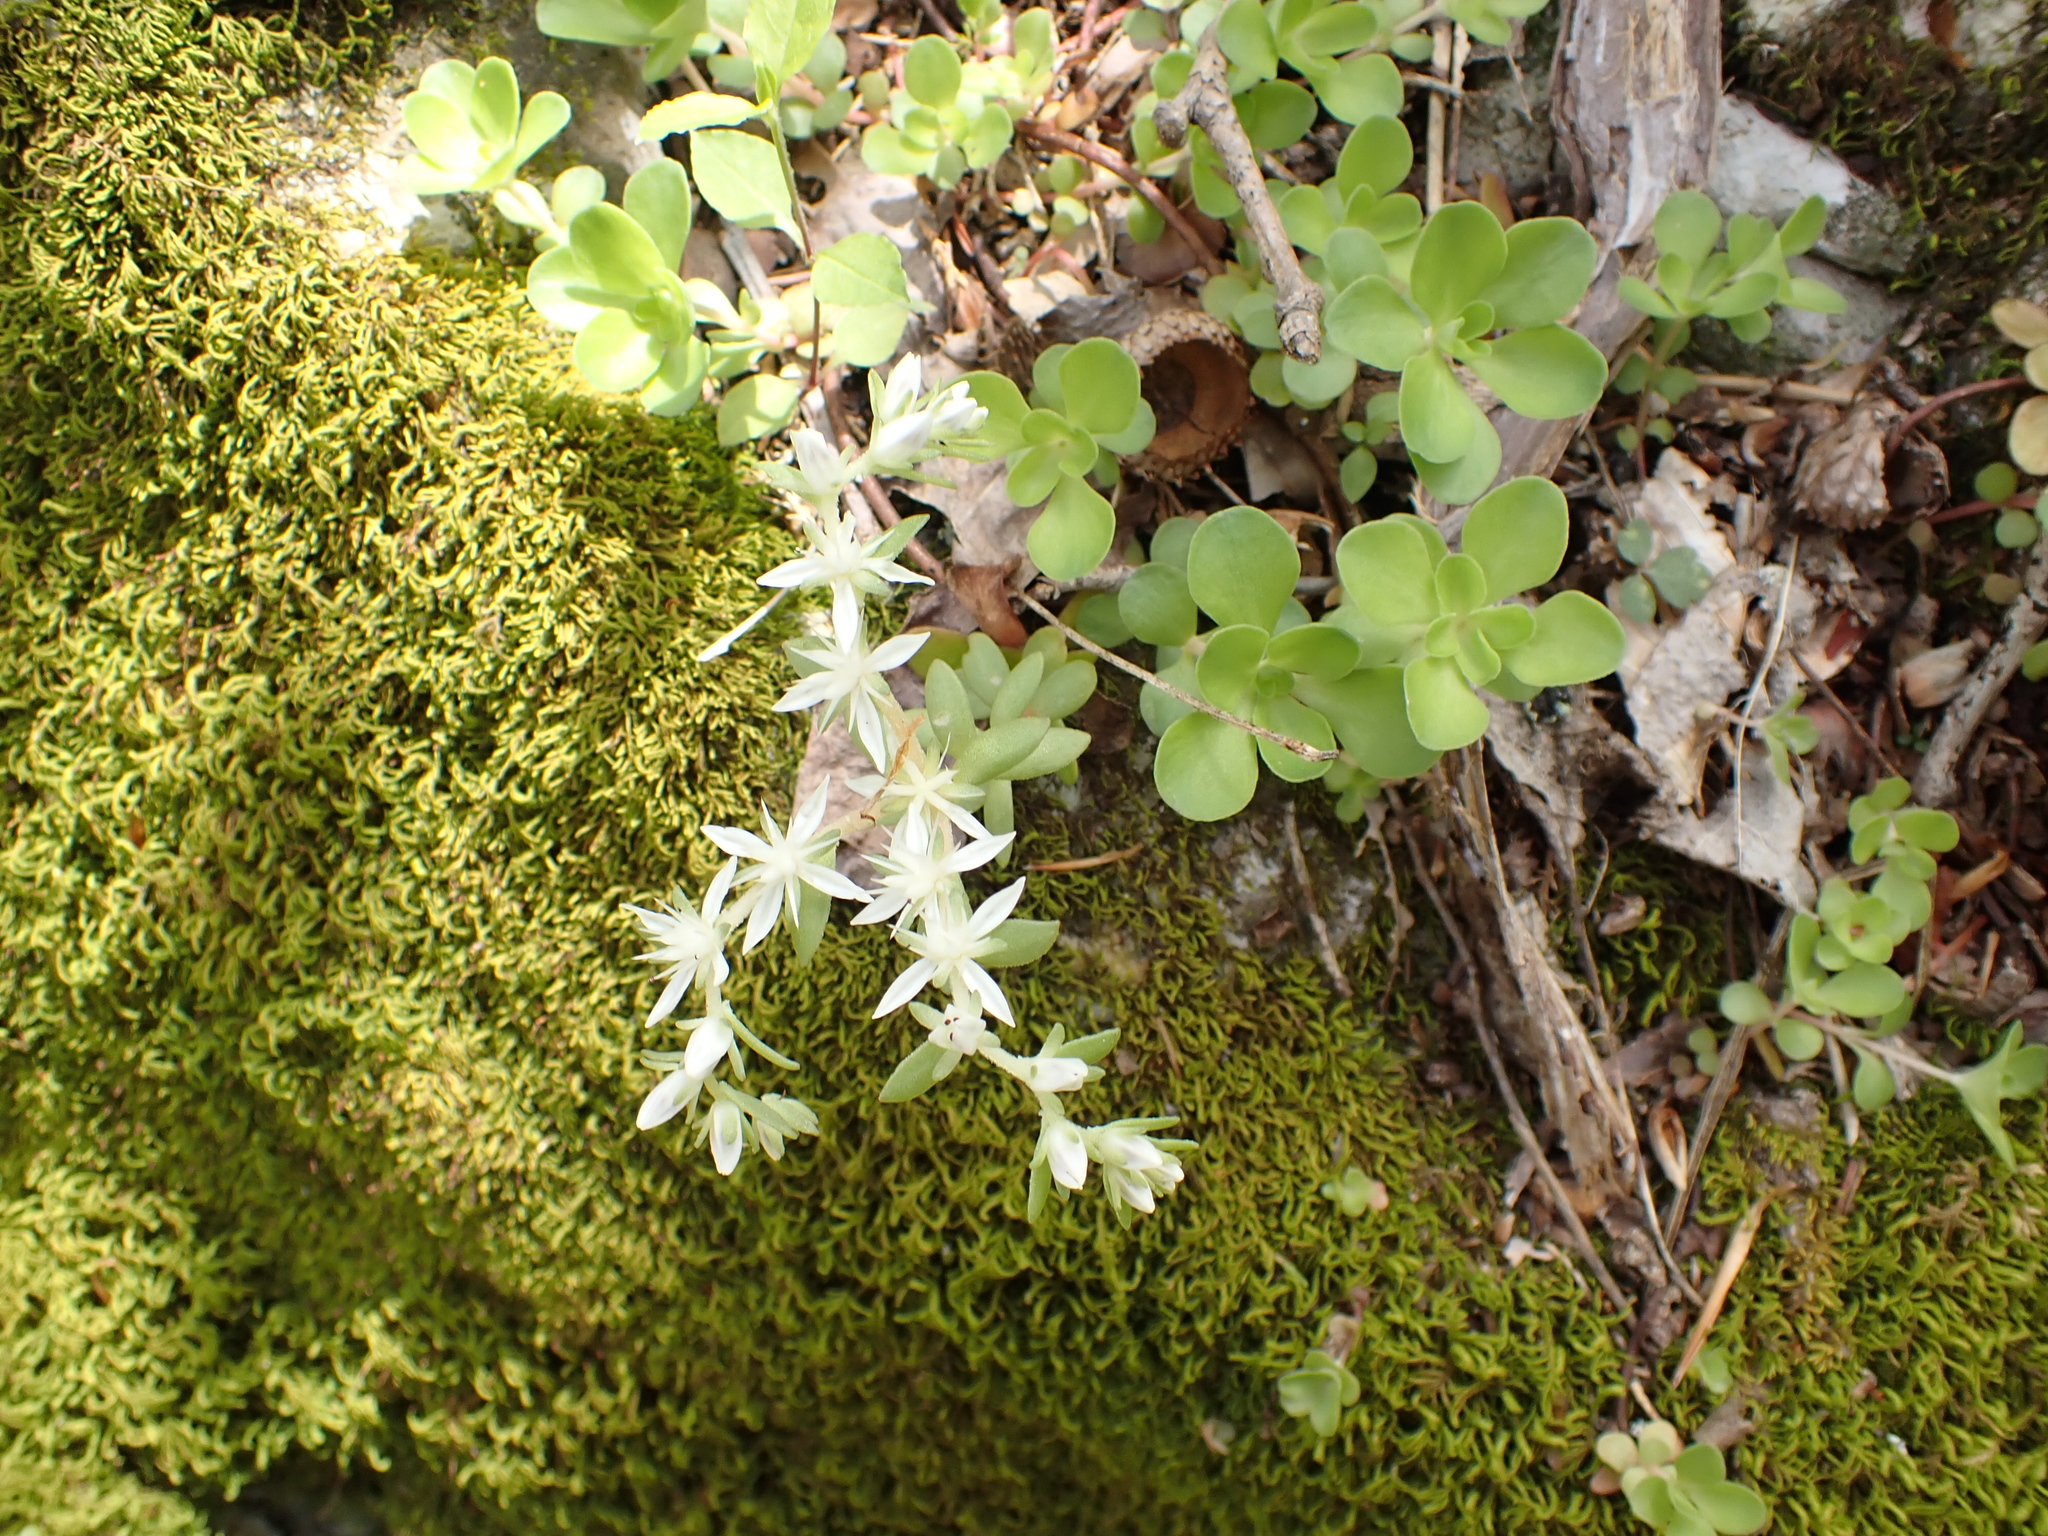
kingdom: Plantae
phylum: Tracheophyta
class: Magnoliopsida
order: Saxifragales
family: Crassulaceae
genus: Sedum
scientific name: Sedum ternatum
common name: Wild stonecrop
